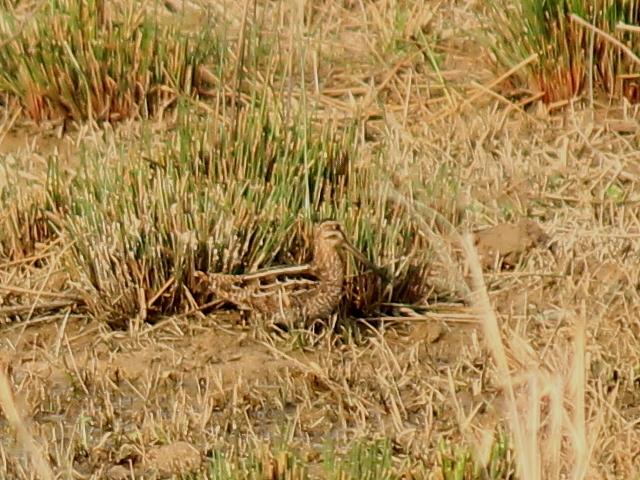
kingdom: Animalia
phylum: Chordata
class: Aves
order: Charadriiformes
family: Scolopacidae
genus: Gallinago
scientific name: Gallinago delicata
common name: Wilson's snipe
